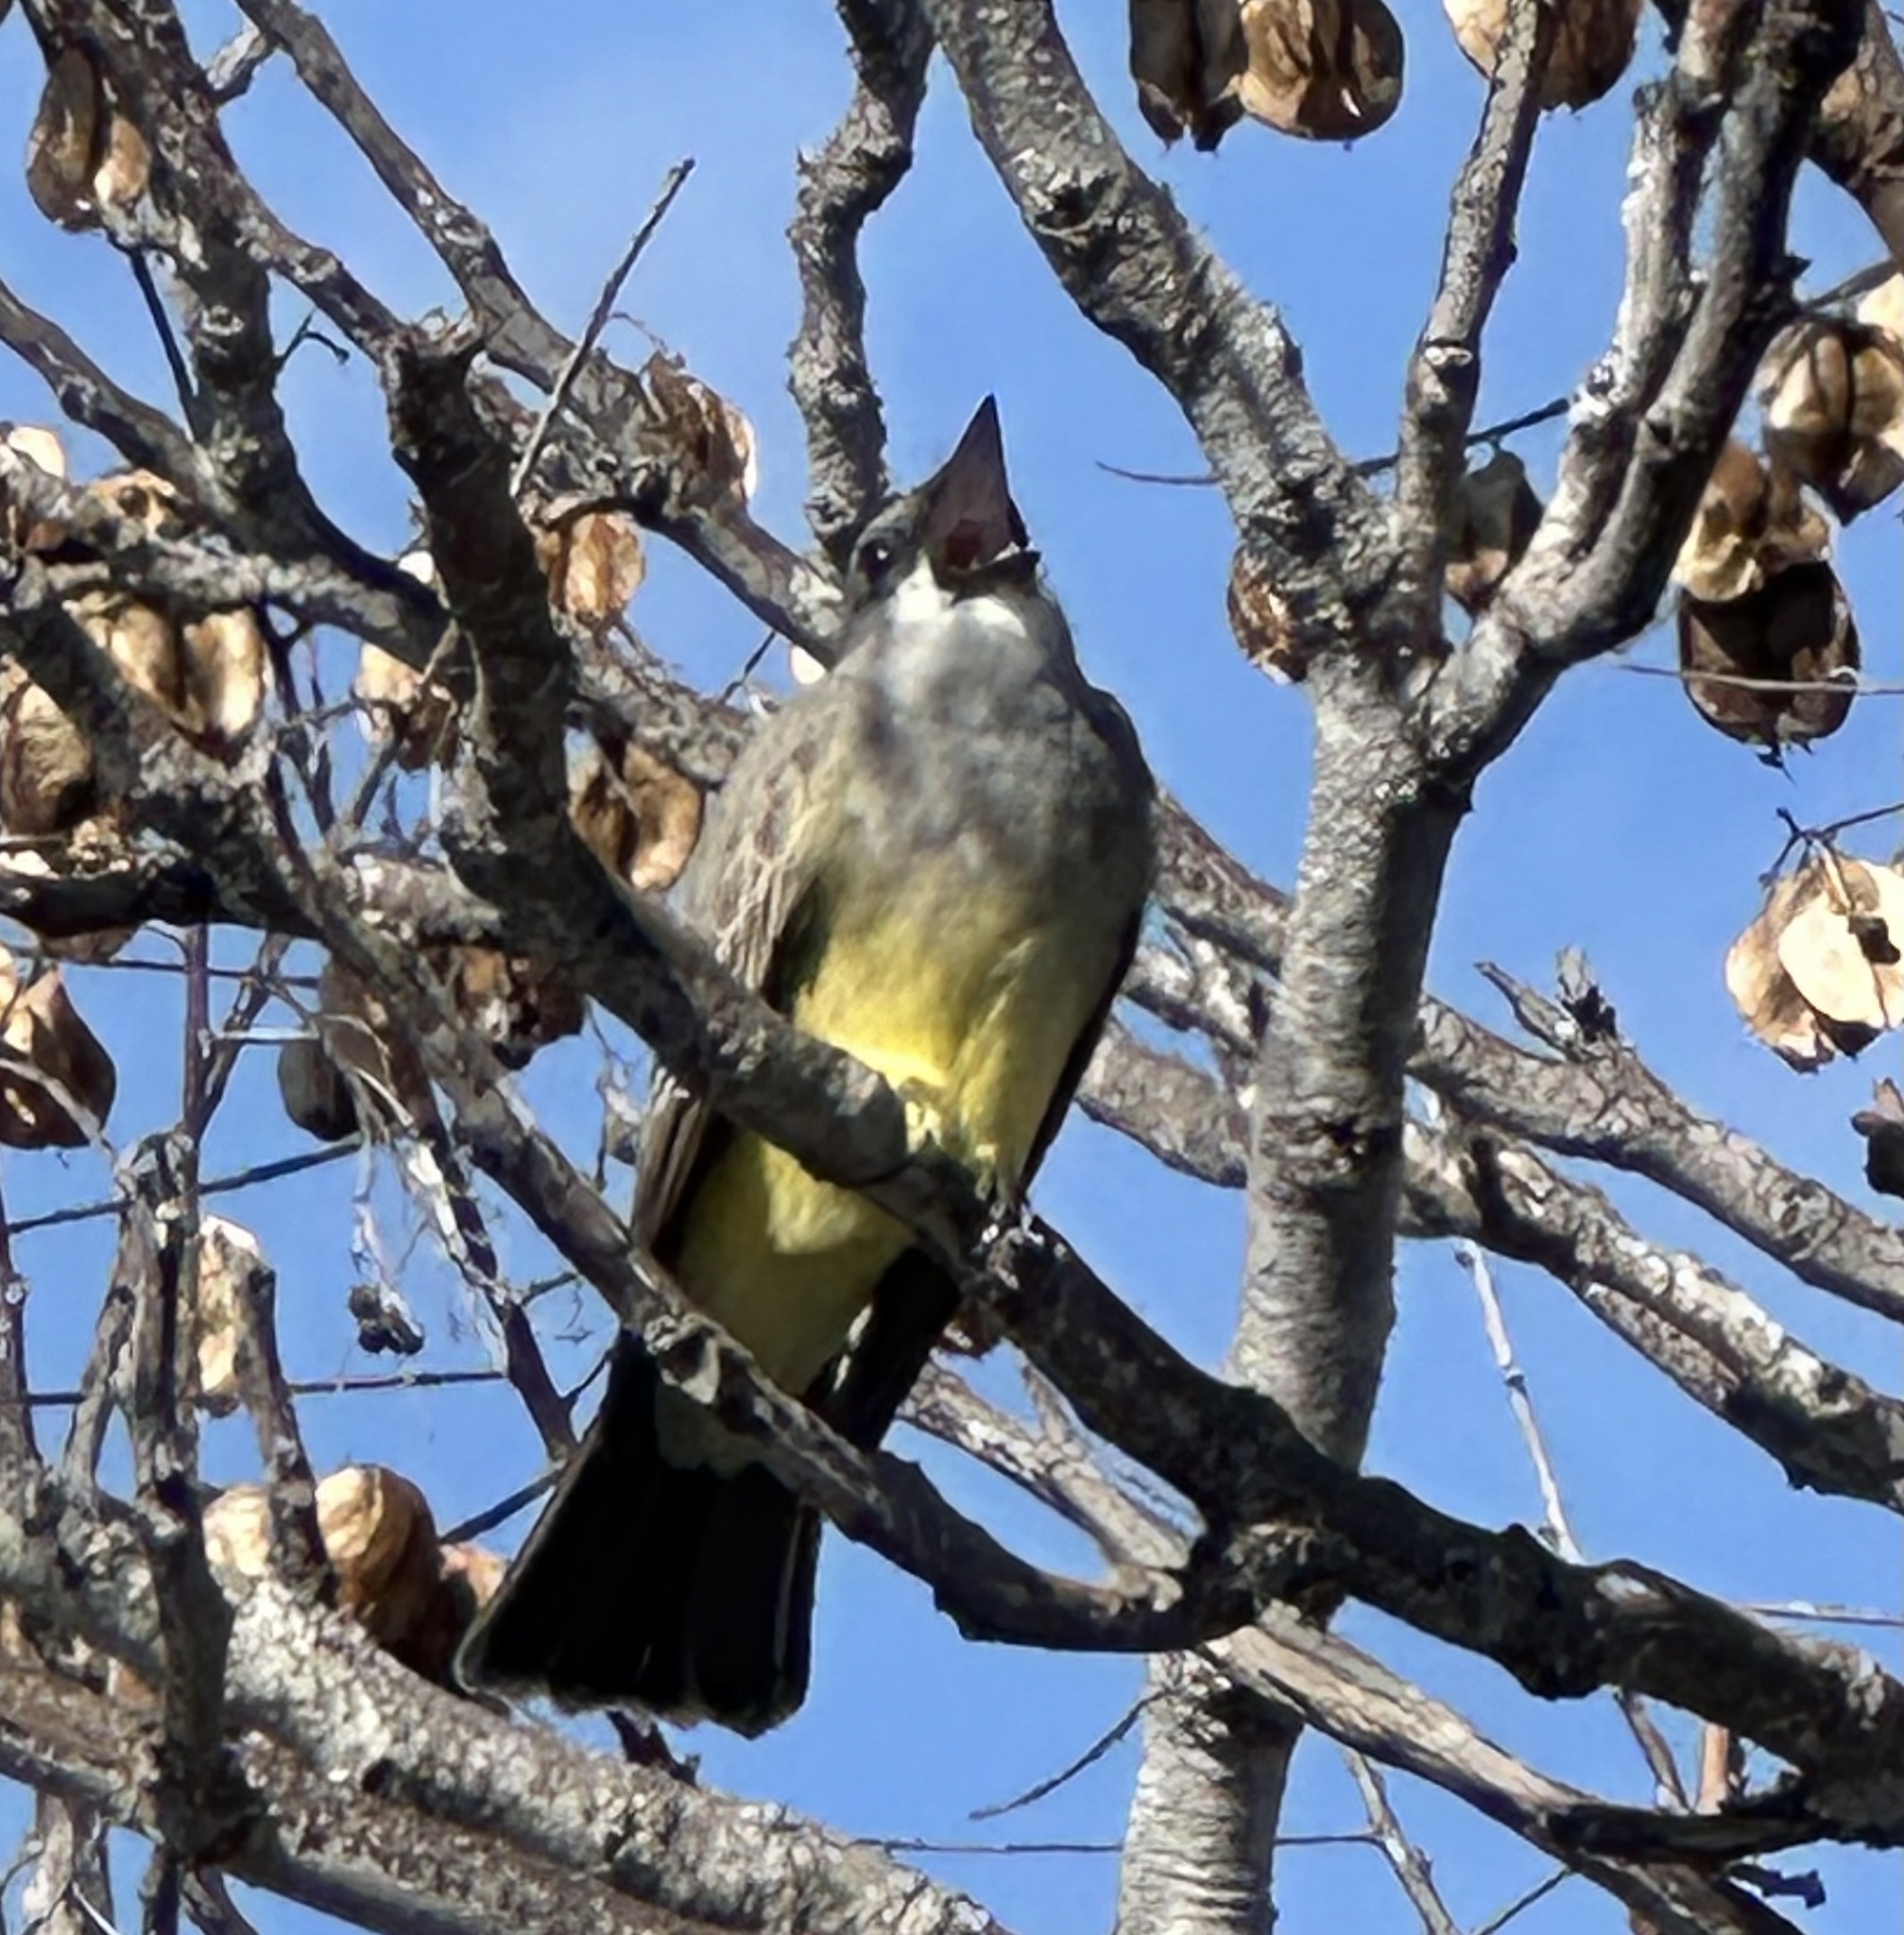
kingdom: Animalia
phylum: Chordata
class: Aves
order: Passeriformes
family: Tyrannidae
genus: Tyrannus
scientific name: Tyrannus vociferans
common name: Cassin's kingbird
